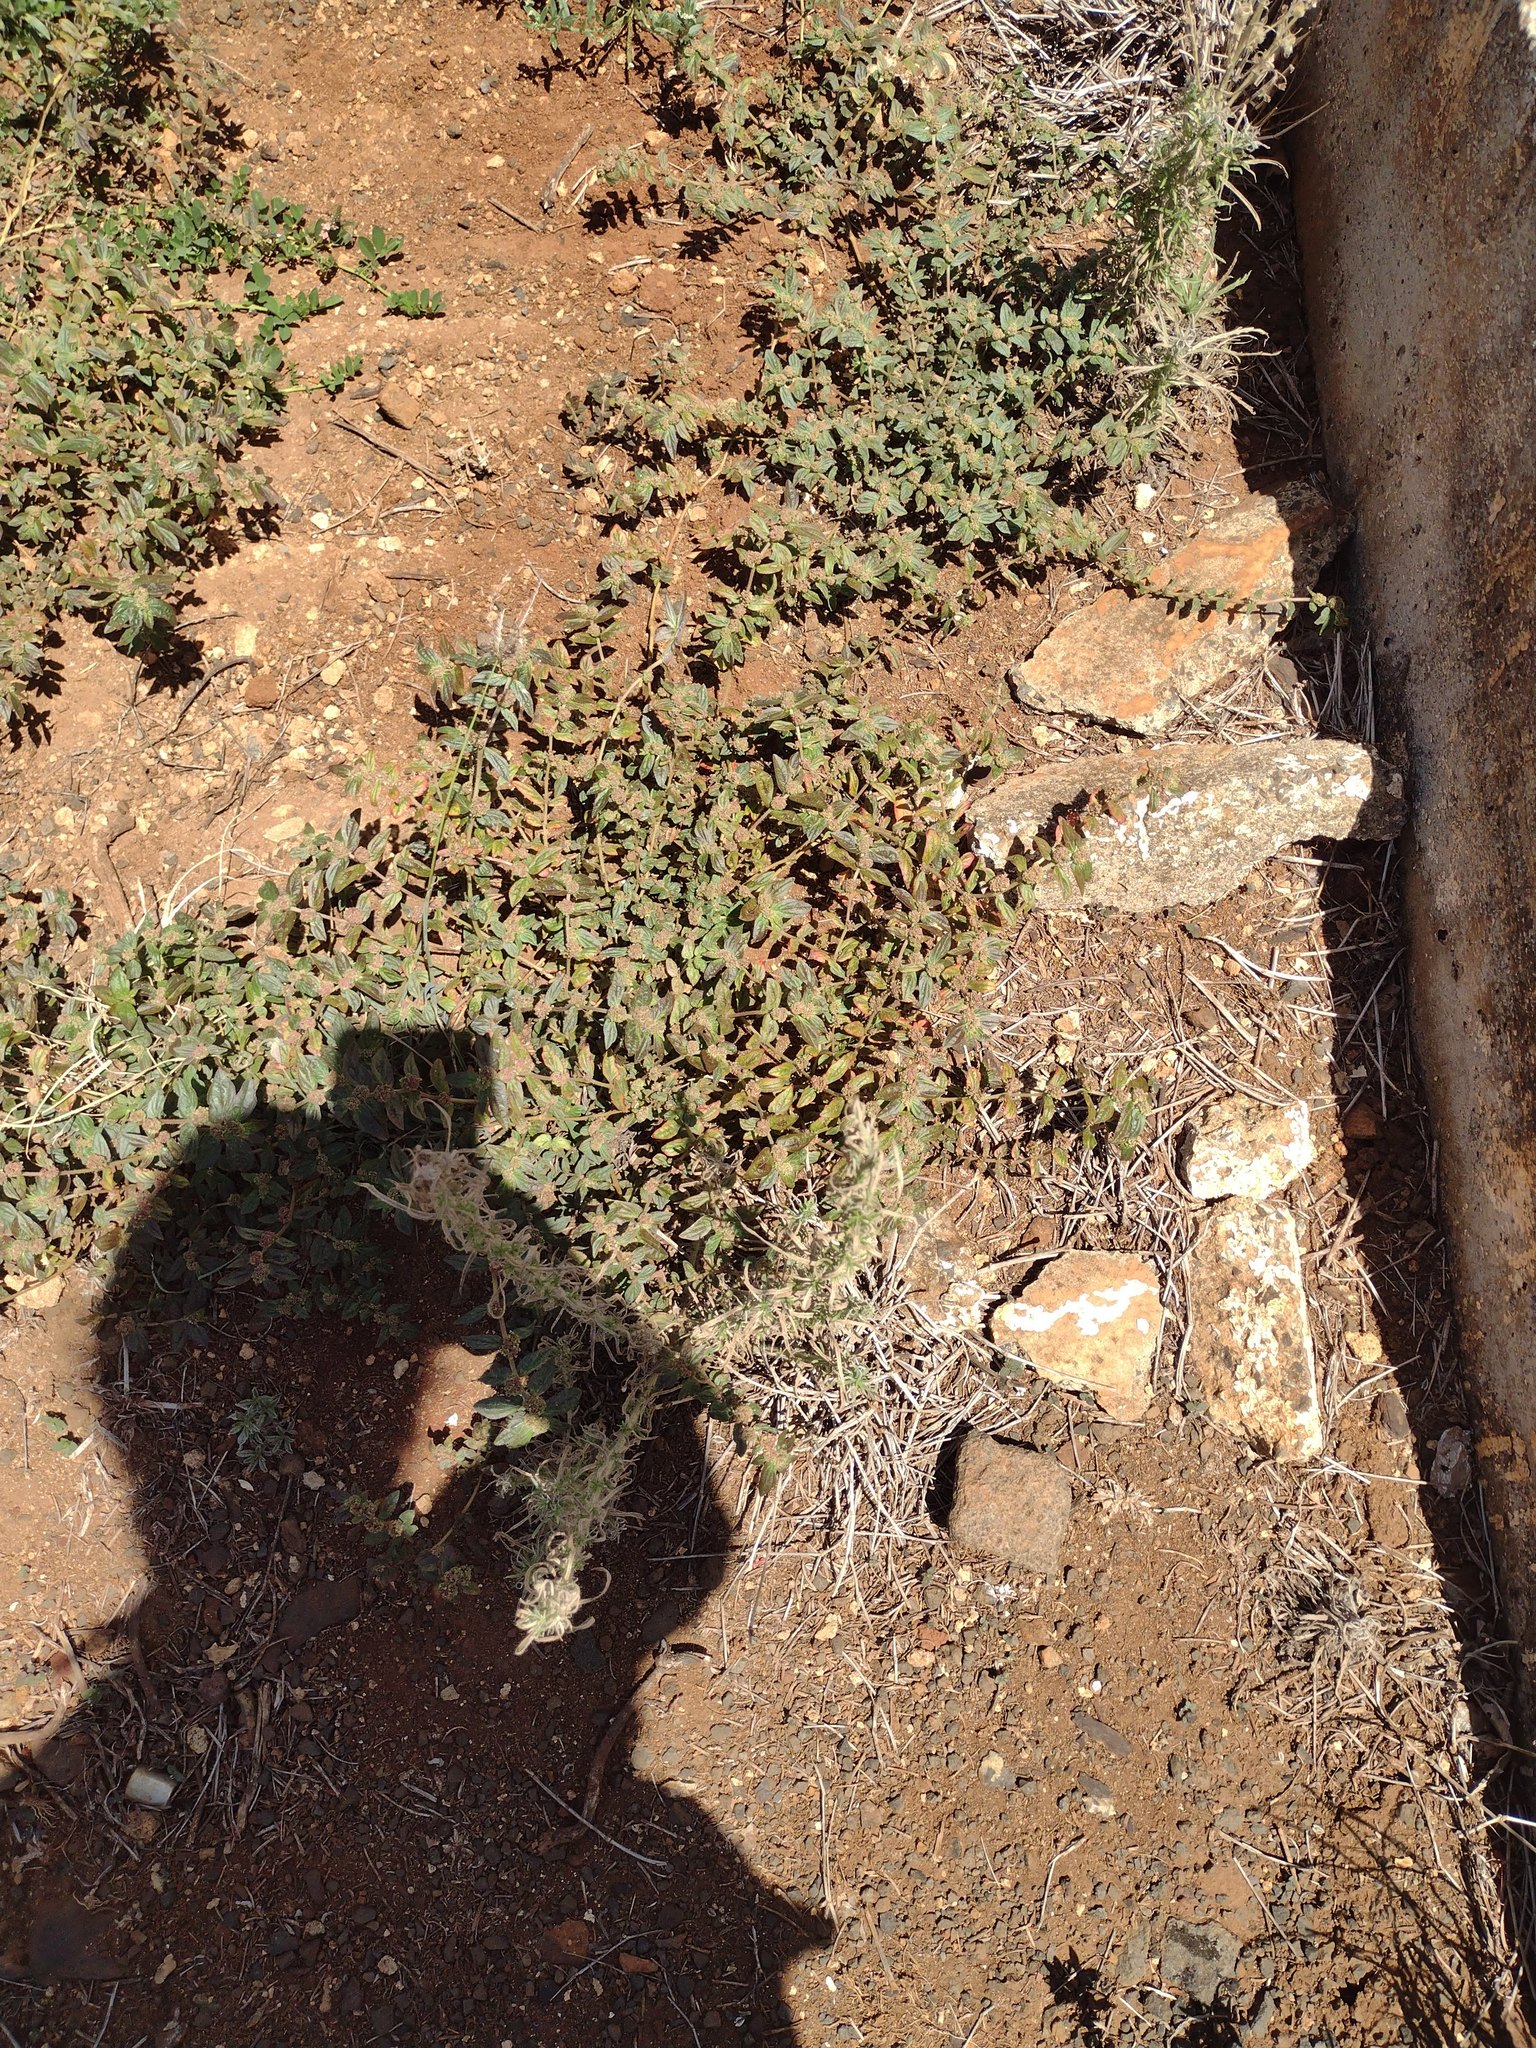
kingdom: Plantae
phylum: Tracheophyta
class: Magnoliopsida
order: Malpighiales
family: Euphorbiaceae
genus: Euphorbia
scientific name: Euphorbia hirta
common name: Pillpod sandmat
